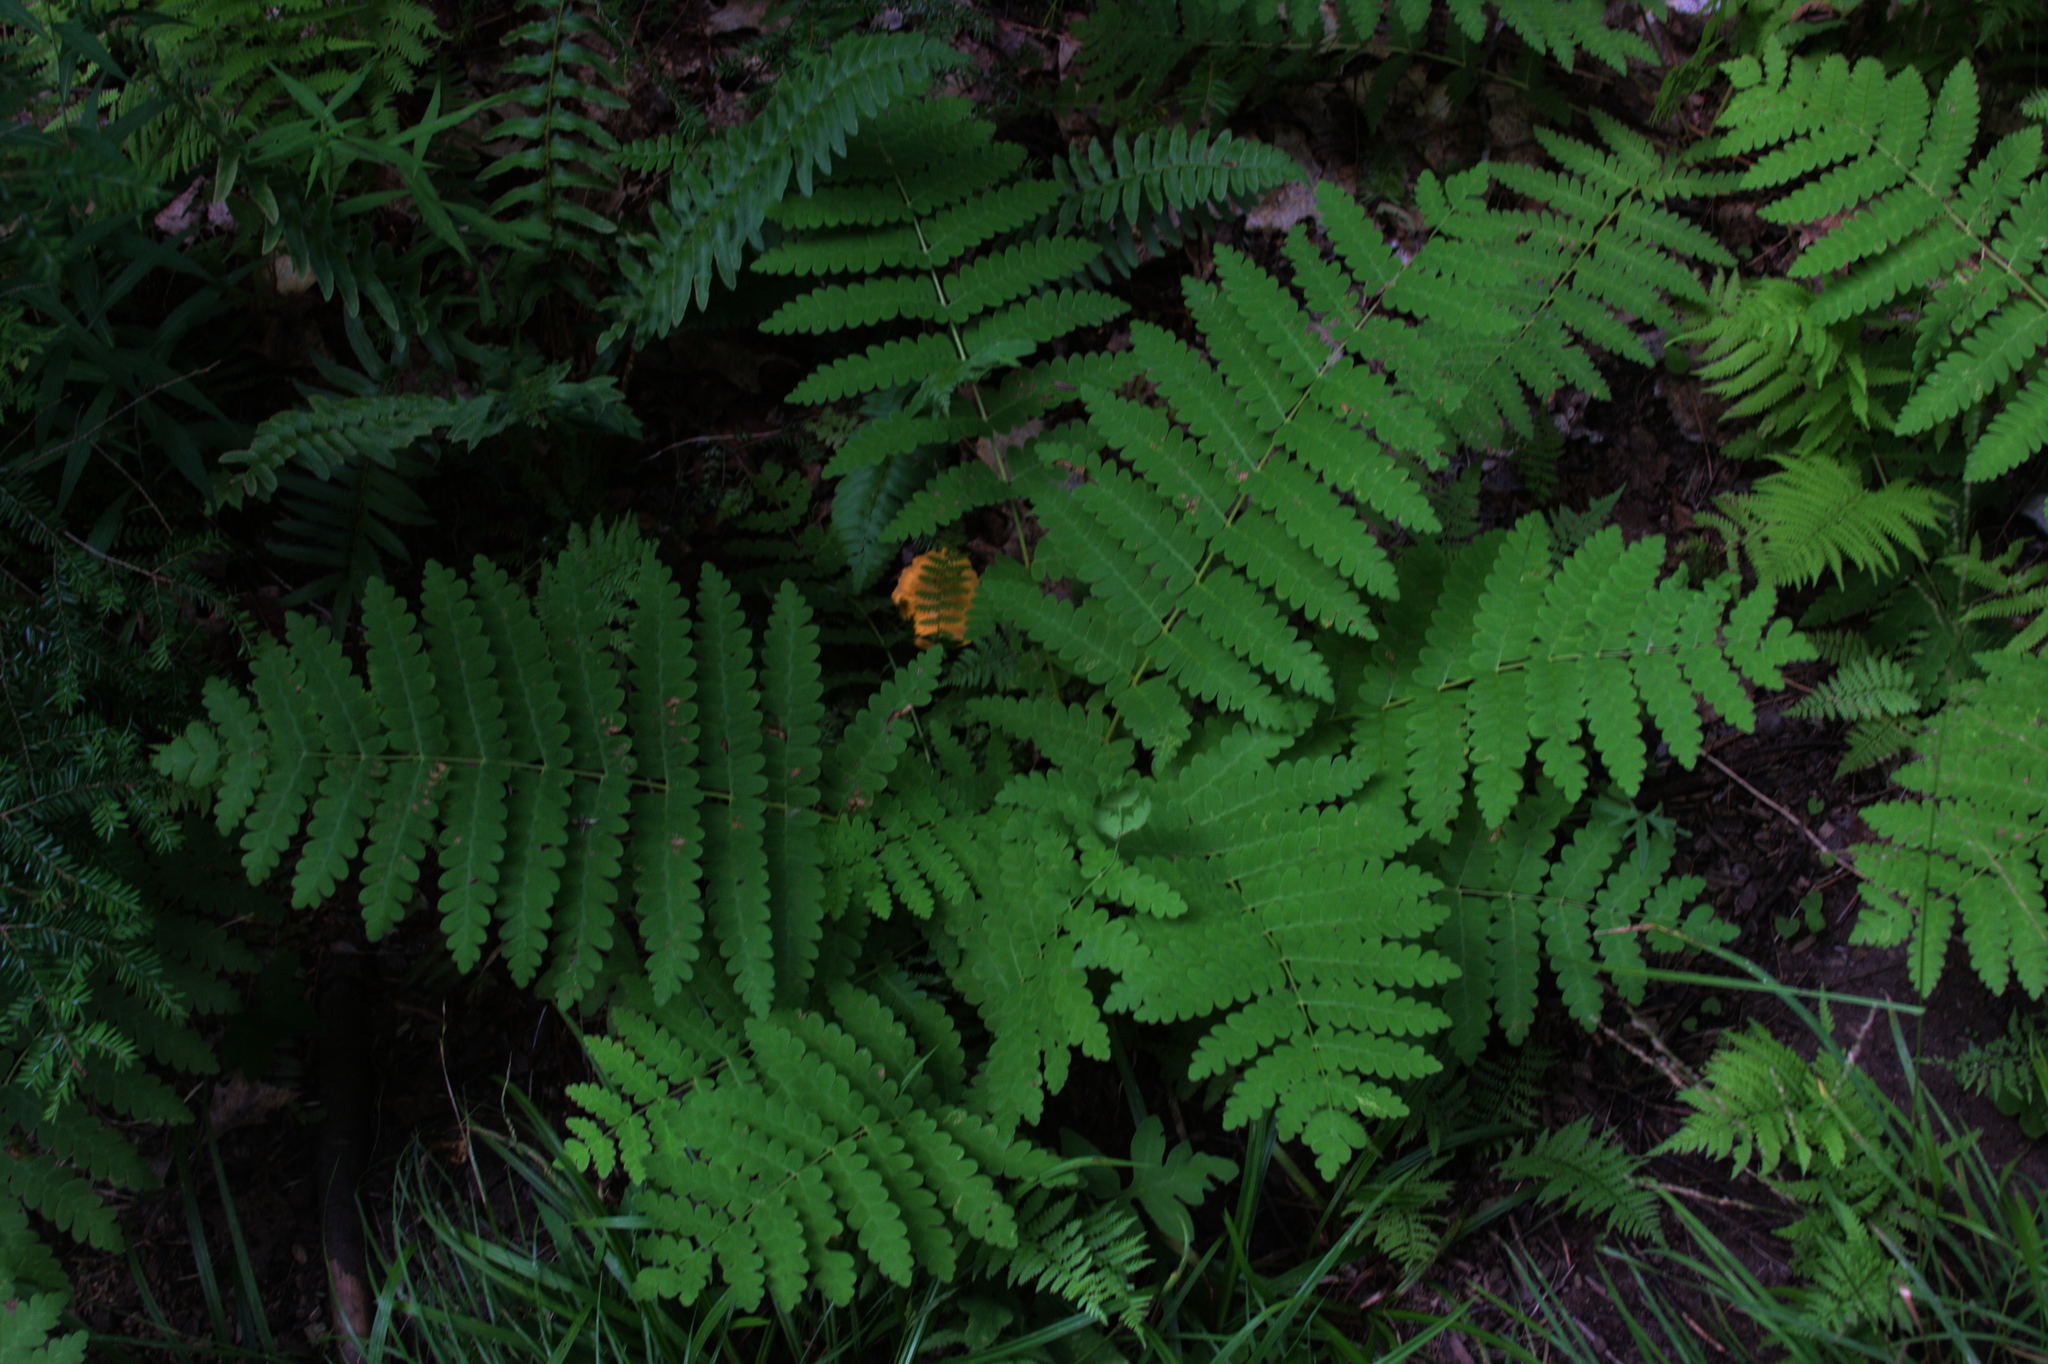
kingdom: Plantae
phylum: Tracheophyta
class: Polypodiopsida
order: Osmundales
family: Osmundaceae
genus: Claytosmunda
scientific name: Claytosmunda claytoniana
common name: Clayton's fern
